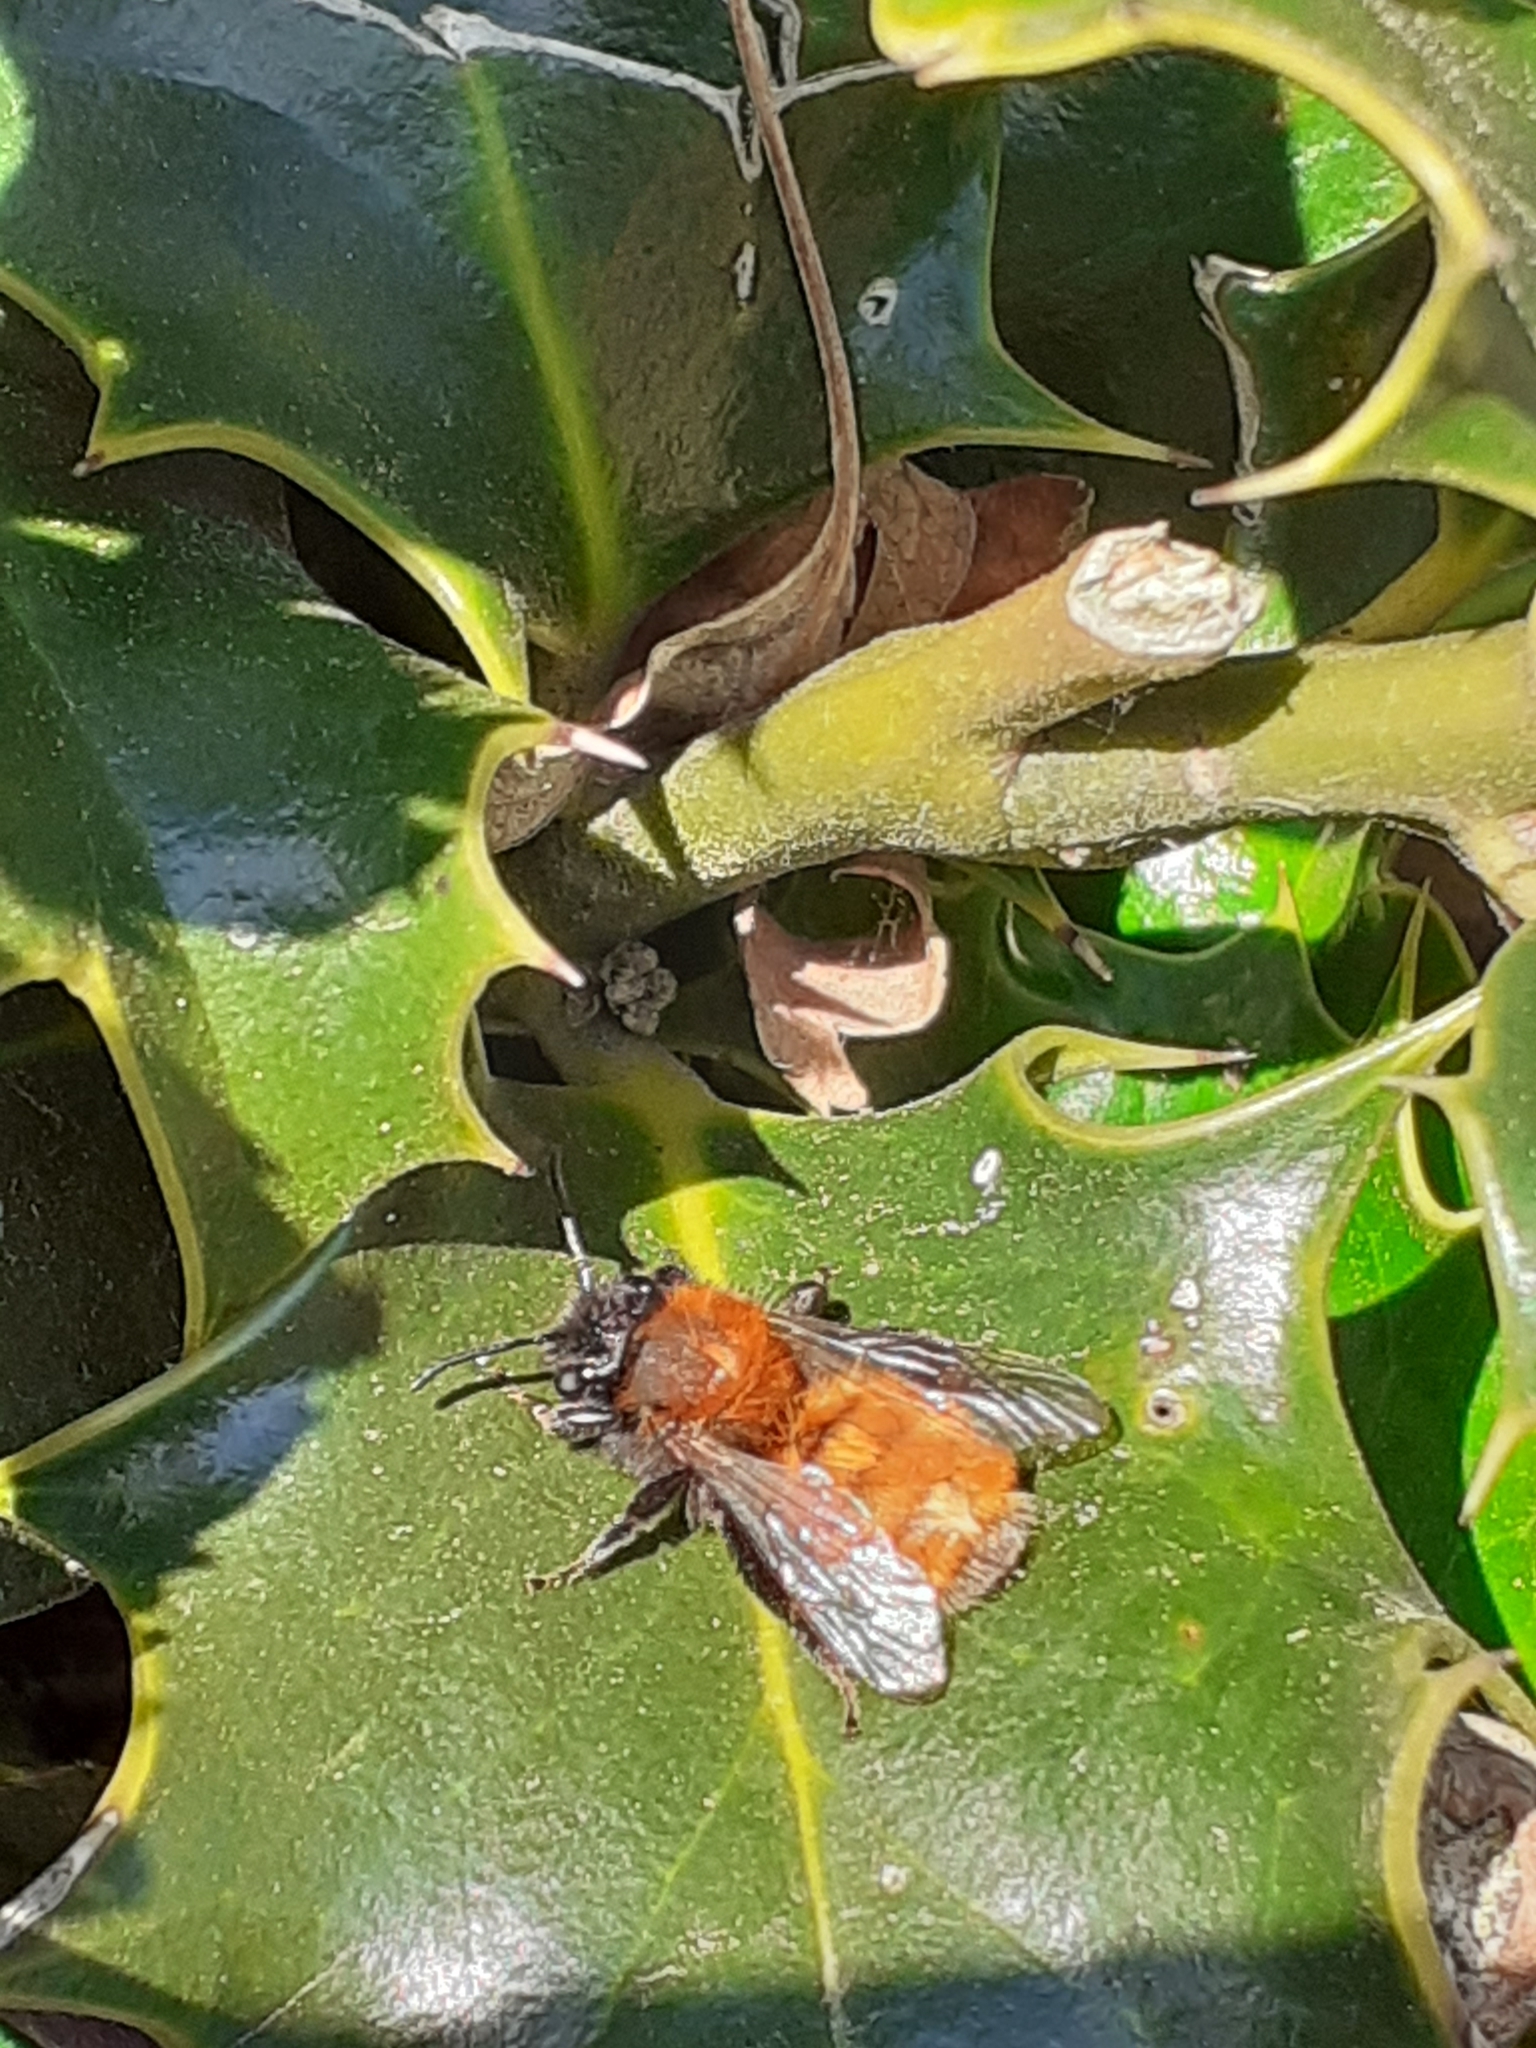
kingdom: Animalia
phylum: Arthropoda
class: Insecta
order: Hymenoptera
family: Andrenidae
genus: Andrena
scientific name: Andrena fulva
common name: Tawny mining bee
